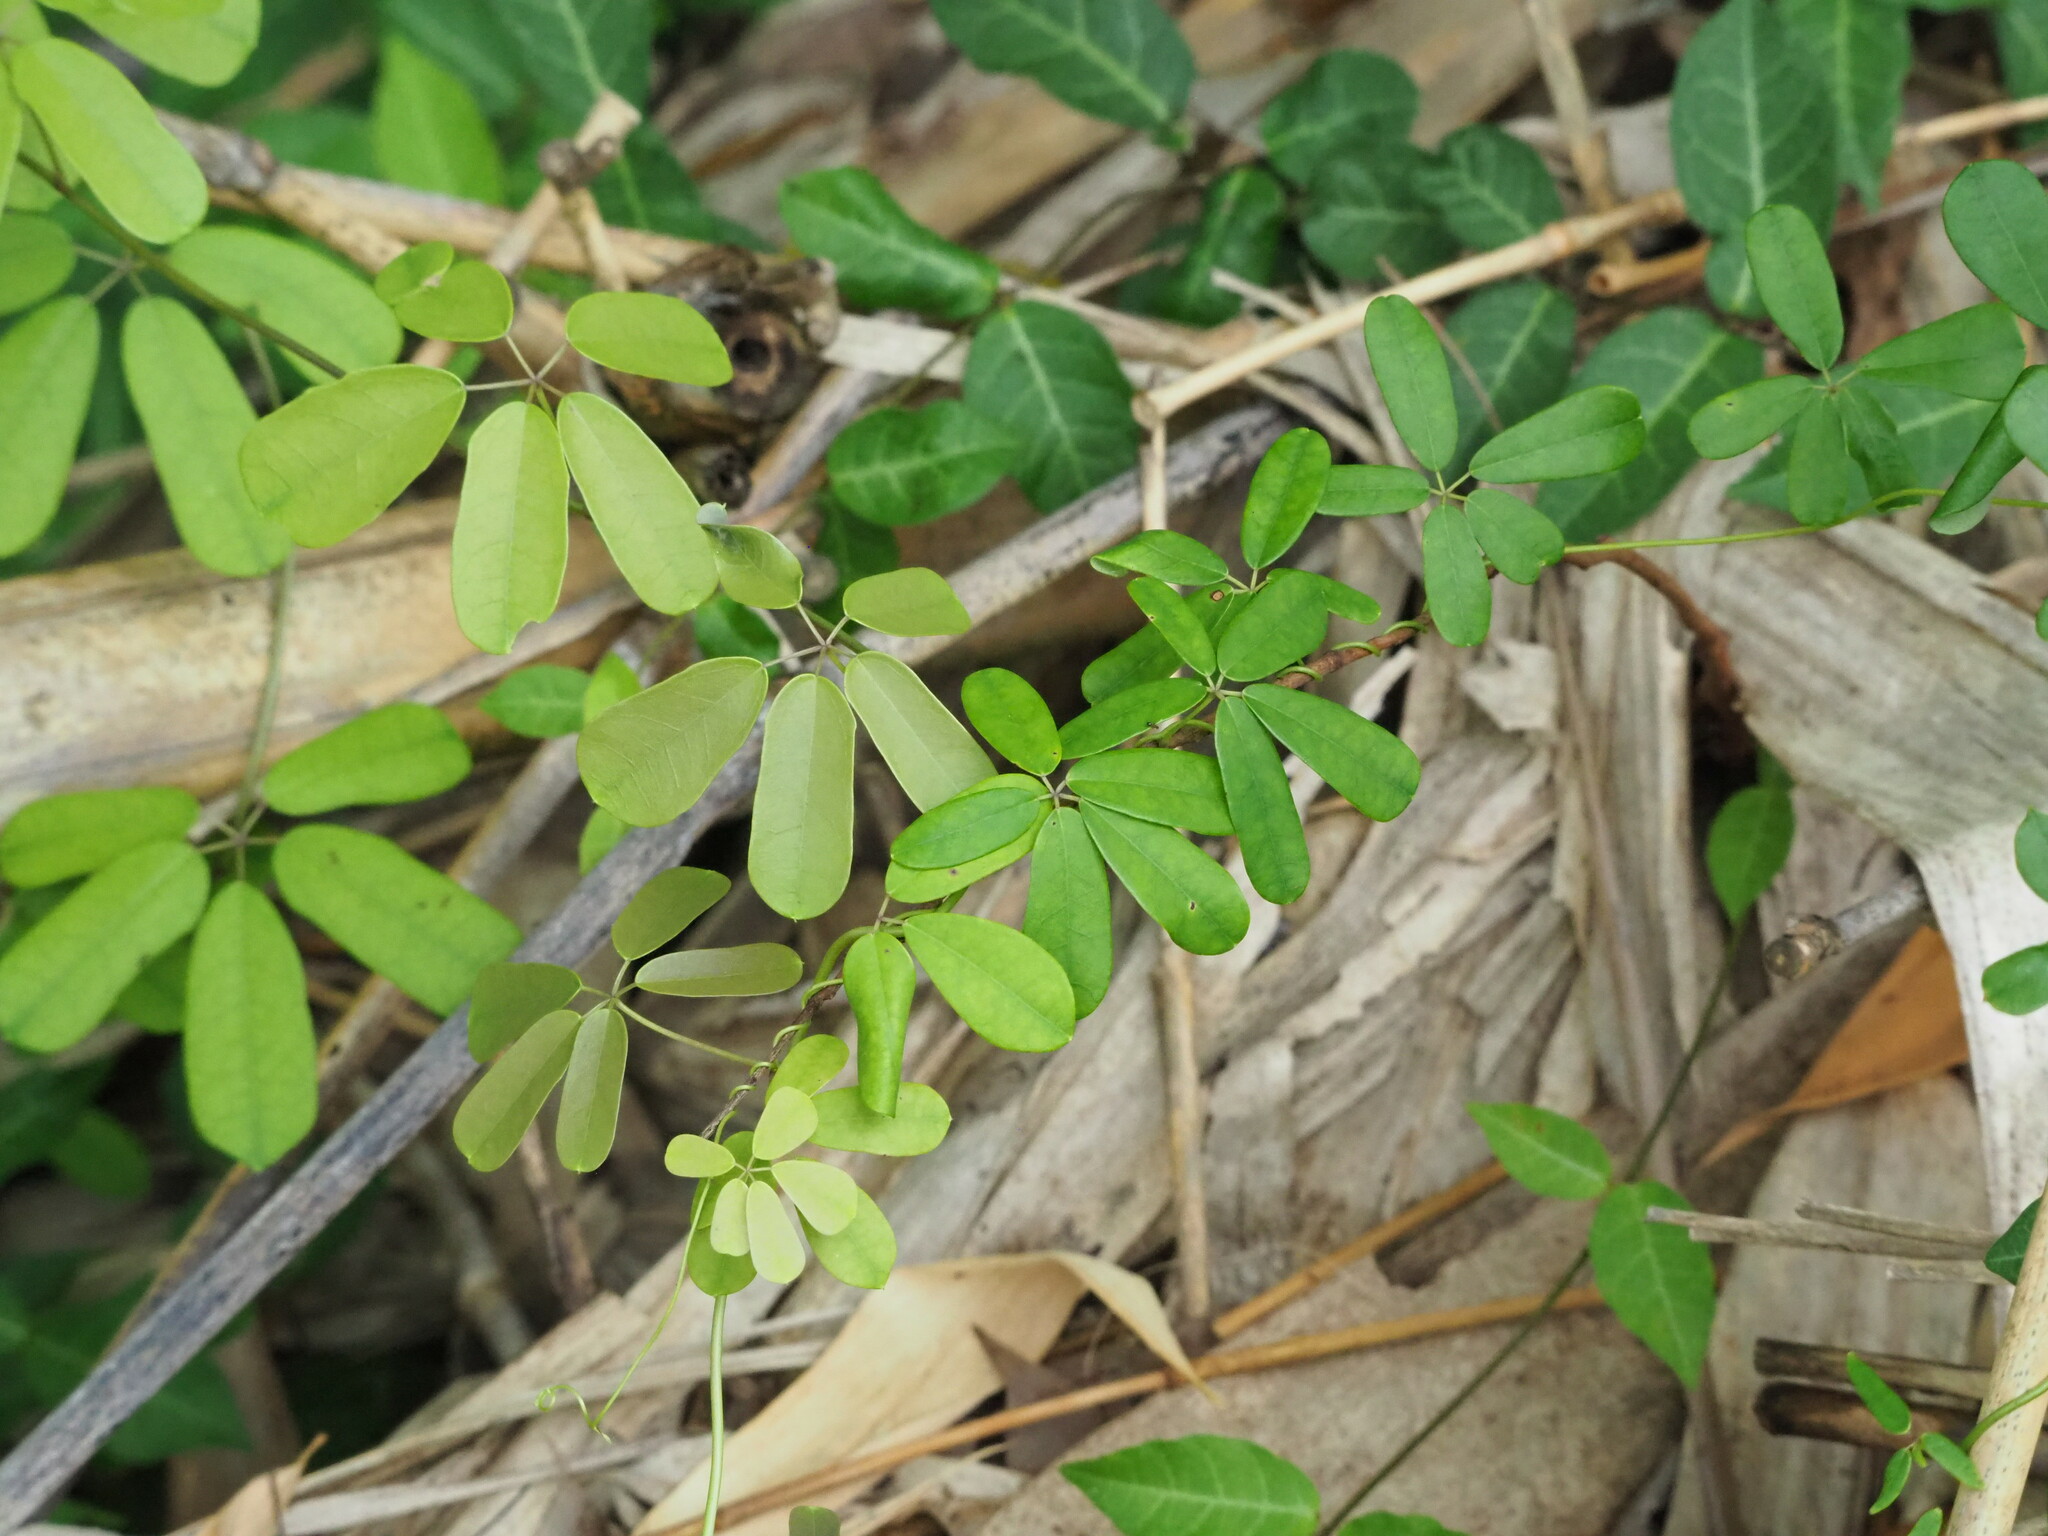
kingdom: Plantae
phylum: Tracheophyta
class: Magnoliopsida
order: Ranunculales
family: Lardizabalaceae
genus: Akebia
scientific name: Akebia longeracemosa
